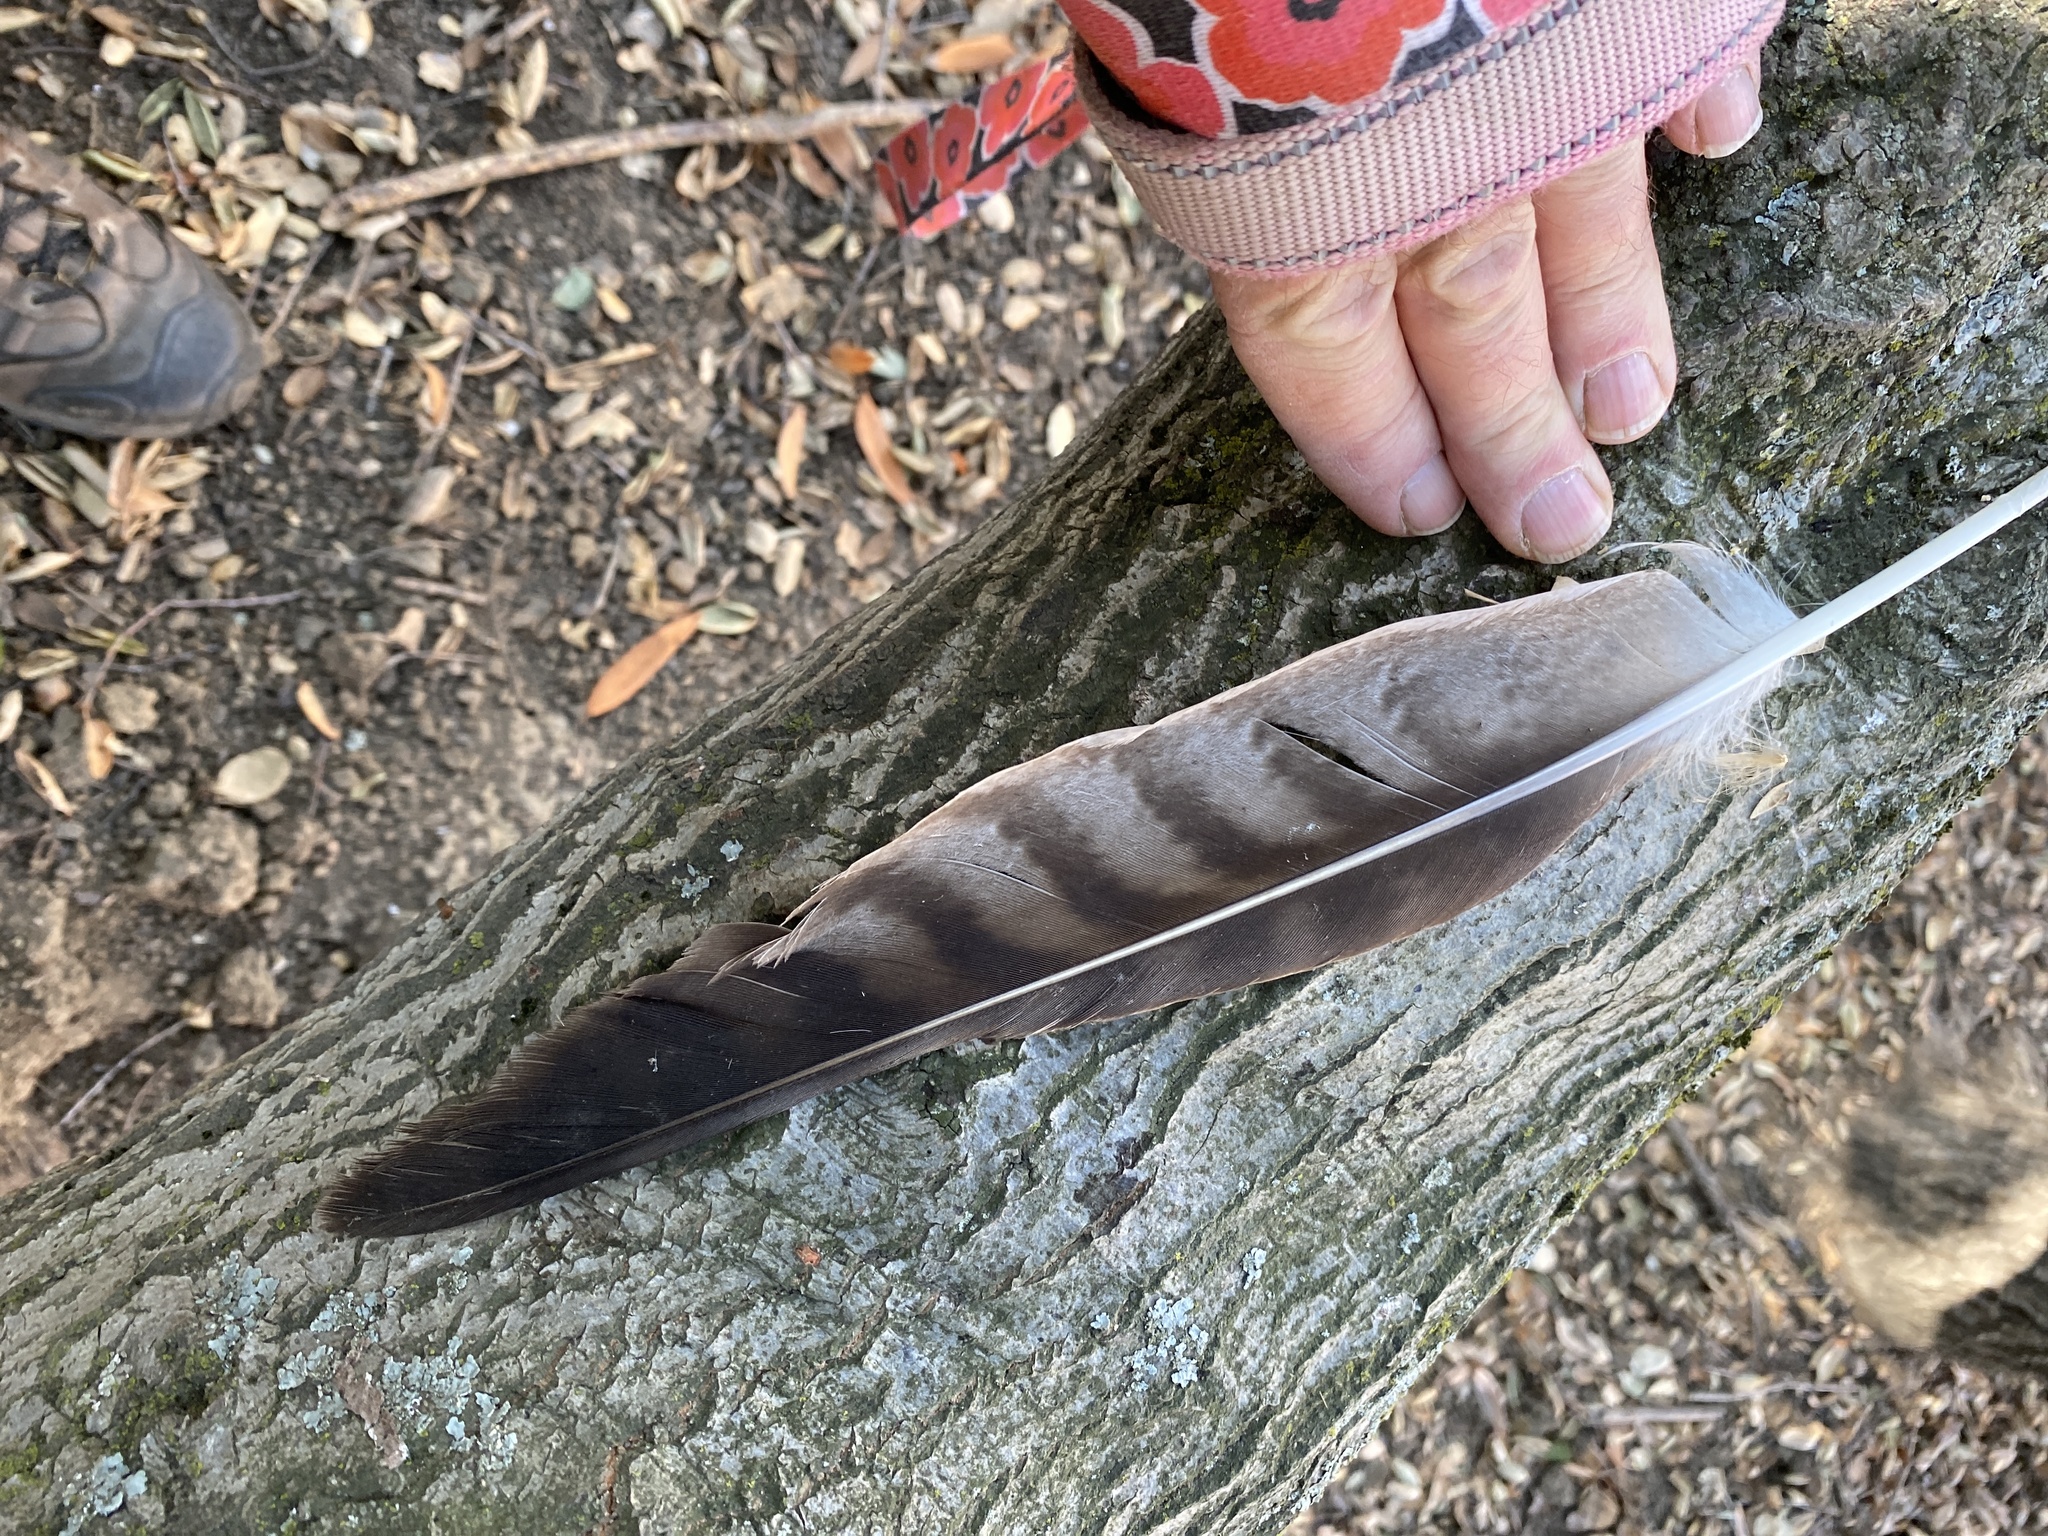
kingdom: Animalia
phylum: Chordata
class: Aves
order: Accipitriformes
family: Accipitridae
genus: Buteo
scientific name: Buteo jamaicensis
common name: Red-tailed hawk
